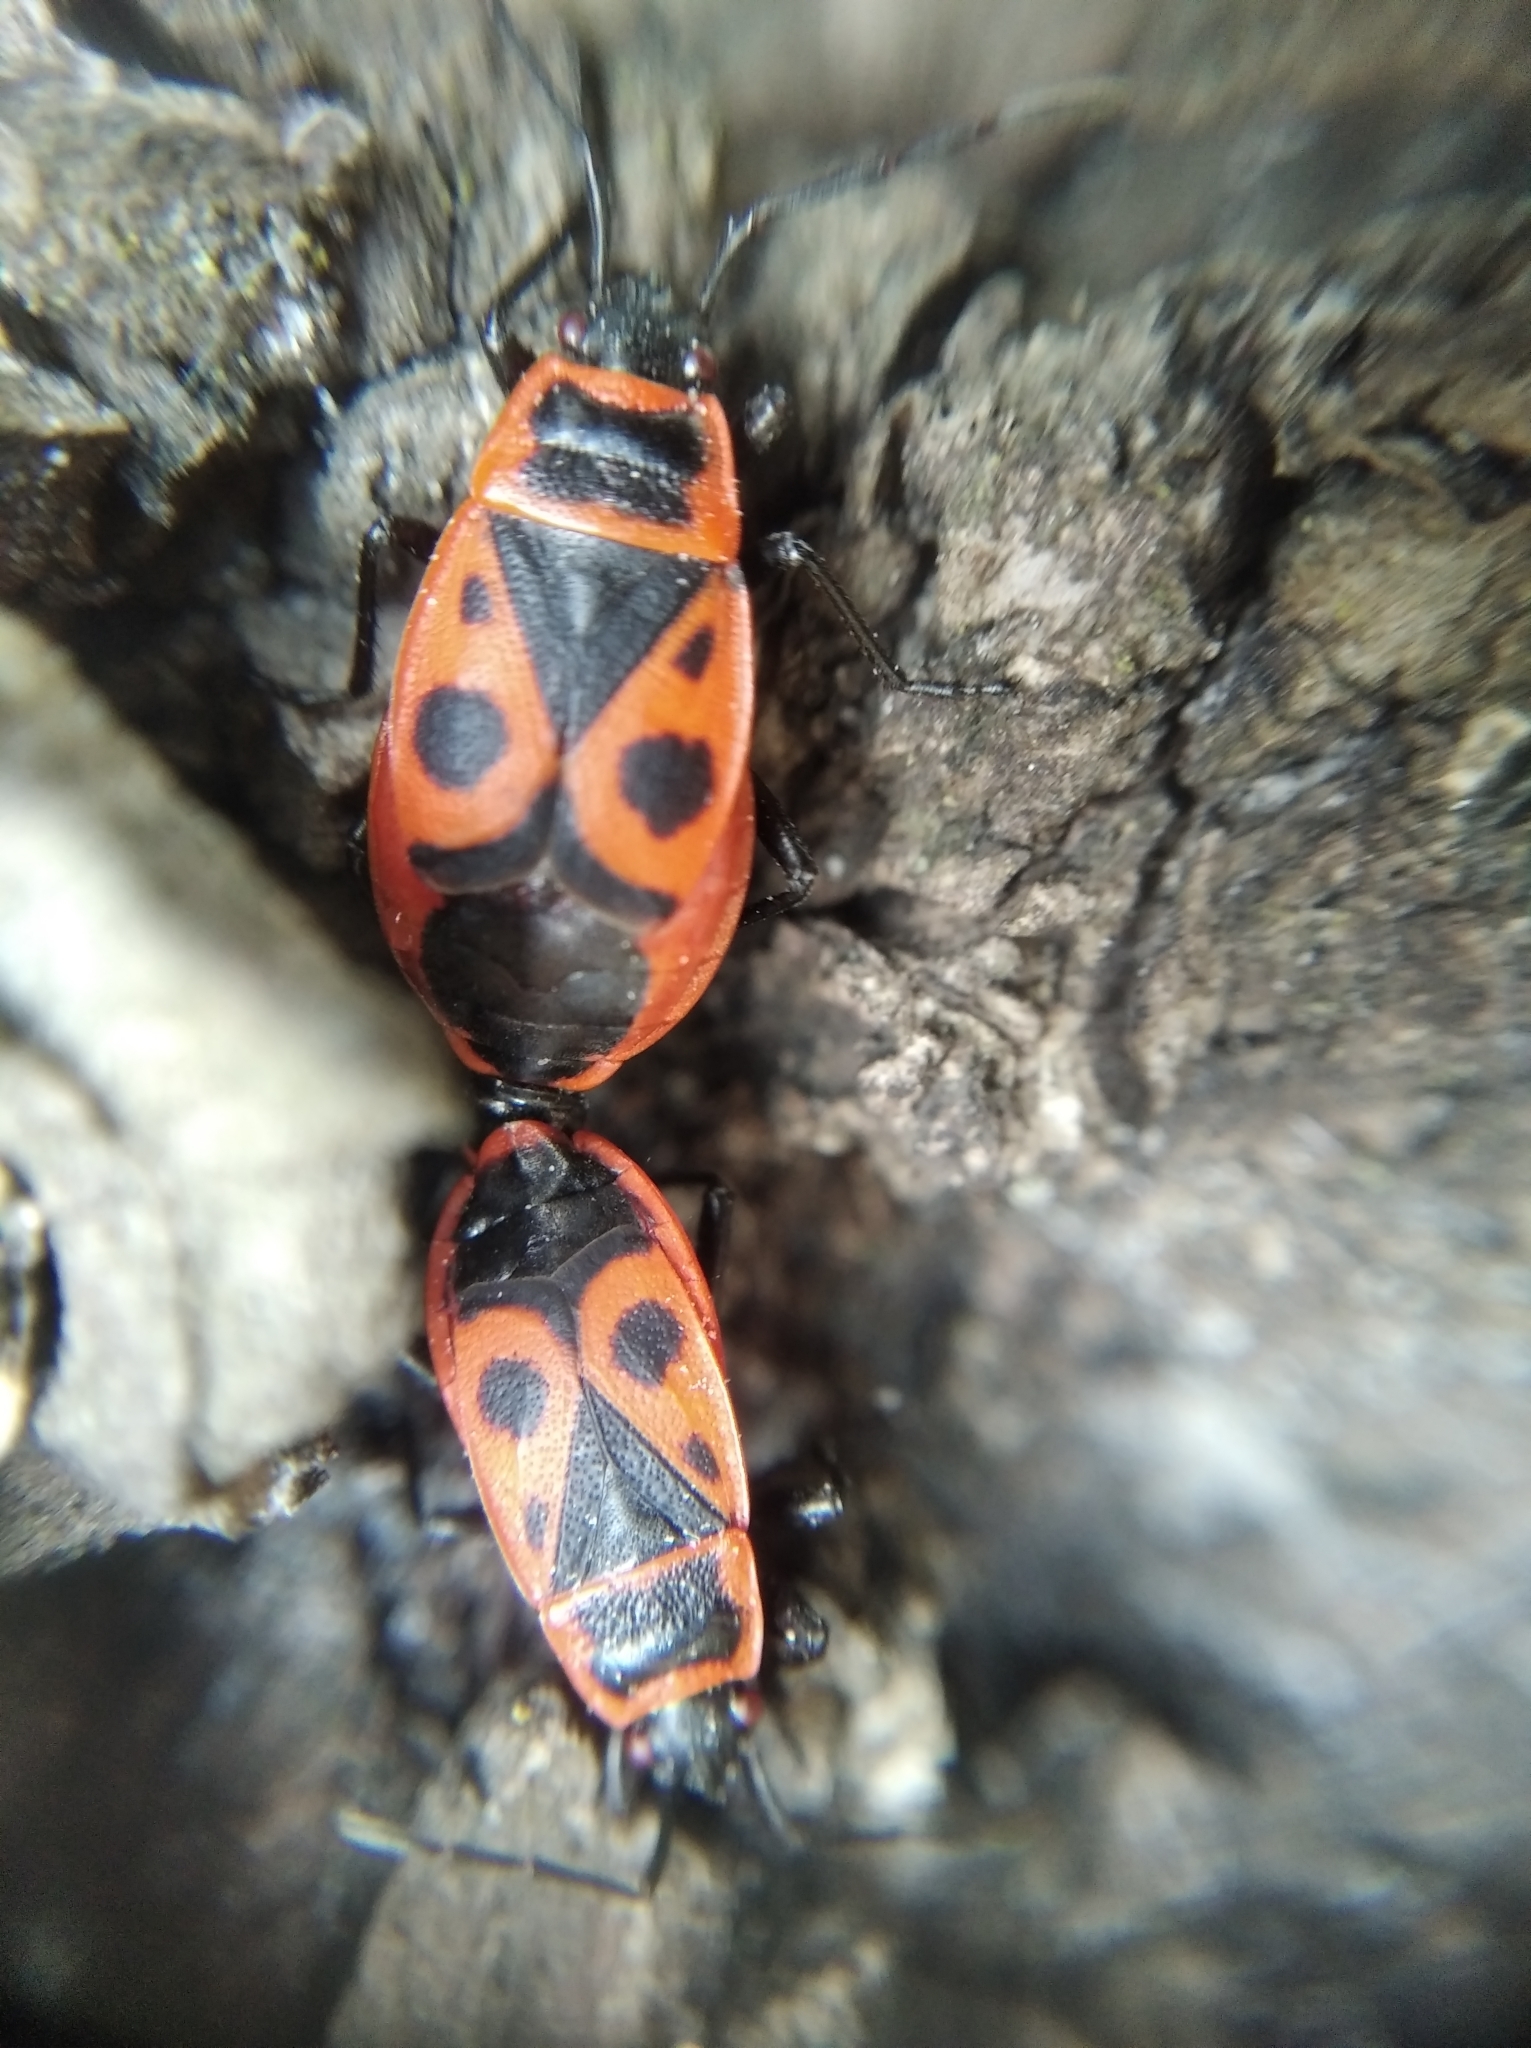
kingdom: Animalia
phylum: Arthropoda
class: Insecta
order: Hemiptera
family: Pyrrhocoridae
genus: Pyrrhocoris
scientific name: Pyrrhocoris apterus
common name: Firebug
